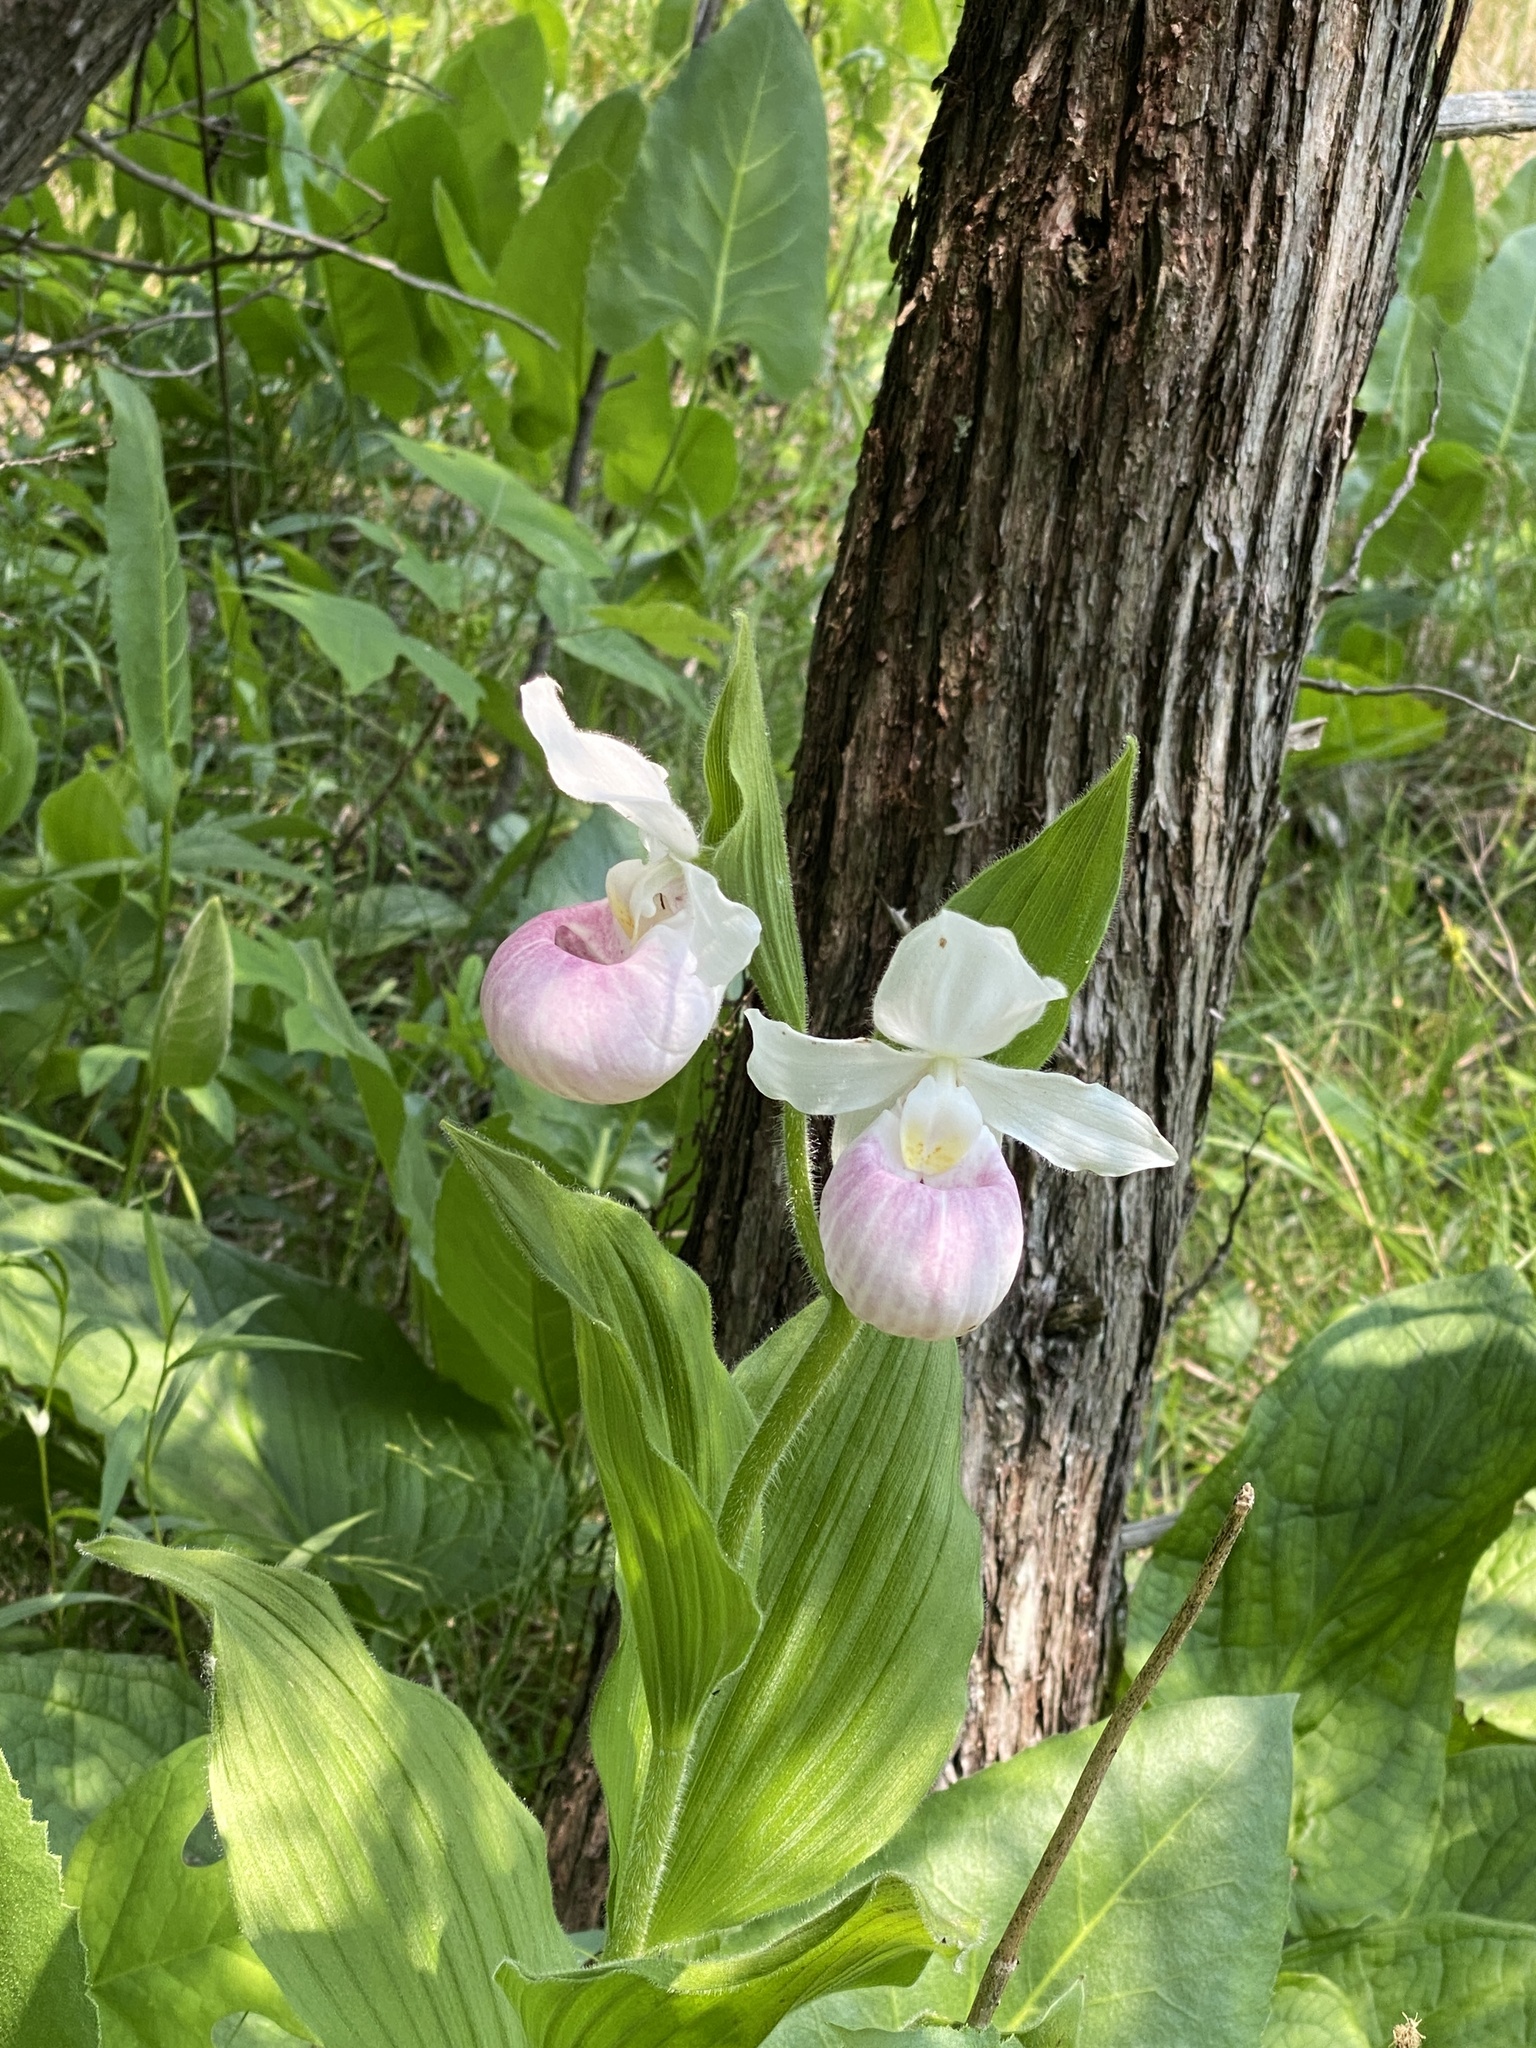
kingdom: Plantae
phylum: Tracheophyta
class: Liliopsida
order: Asparagales
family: Orchidaceae
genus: Cypripedium
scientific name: Cypripedium reginae
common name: Queen lady's-slipper
